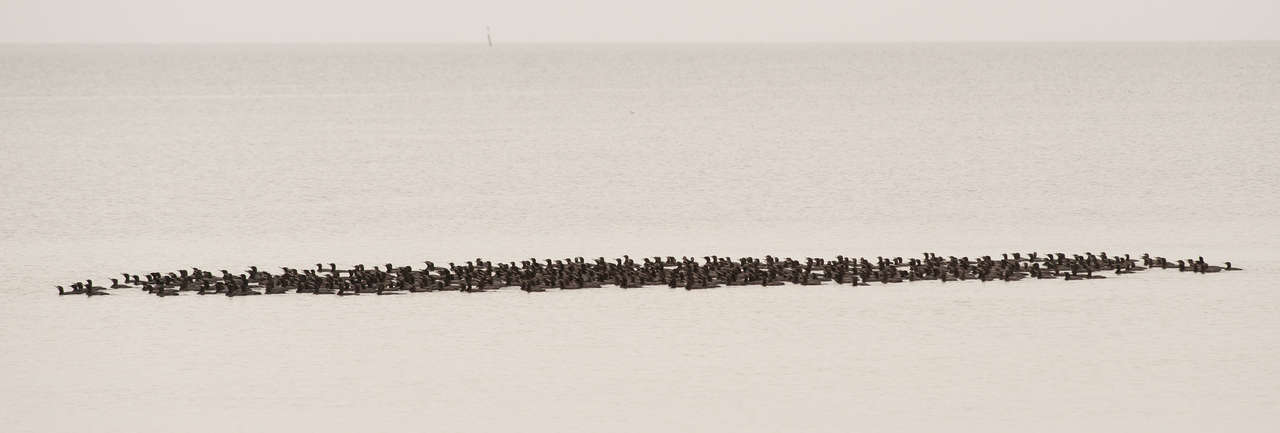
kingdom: Animalia
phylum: Chordata
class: Aves
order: Suliformes
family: Phalacrocoracidae
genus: Phalacrocorax
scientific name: Phalacrocorax sulcirostris
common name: Little black cormorant
